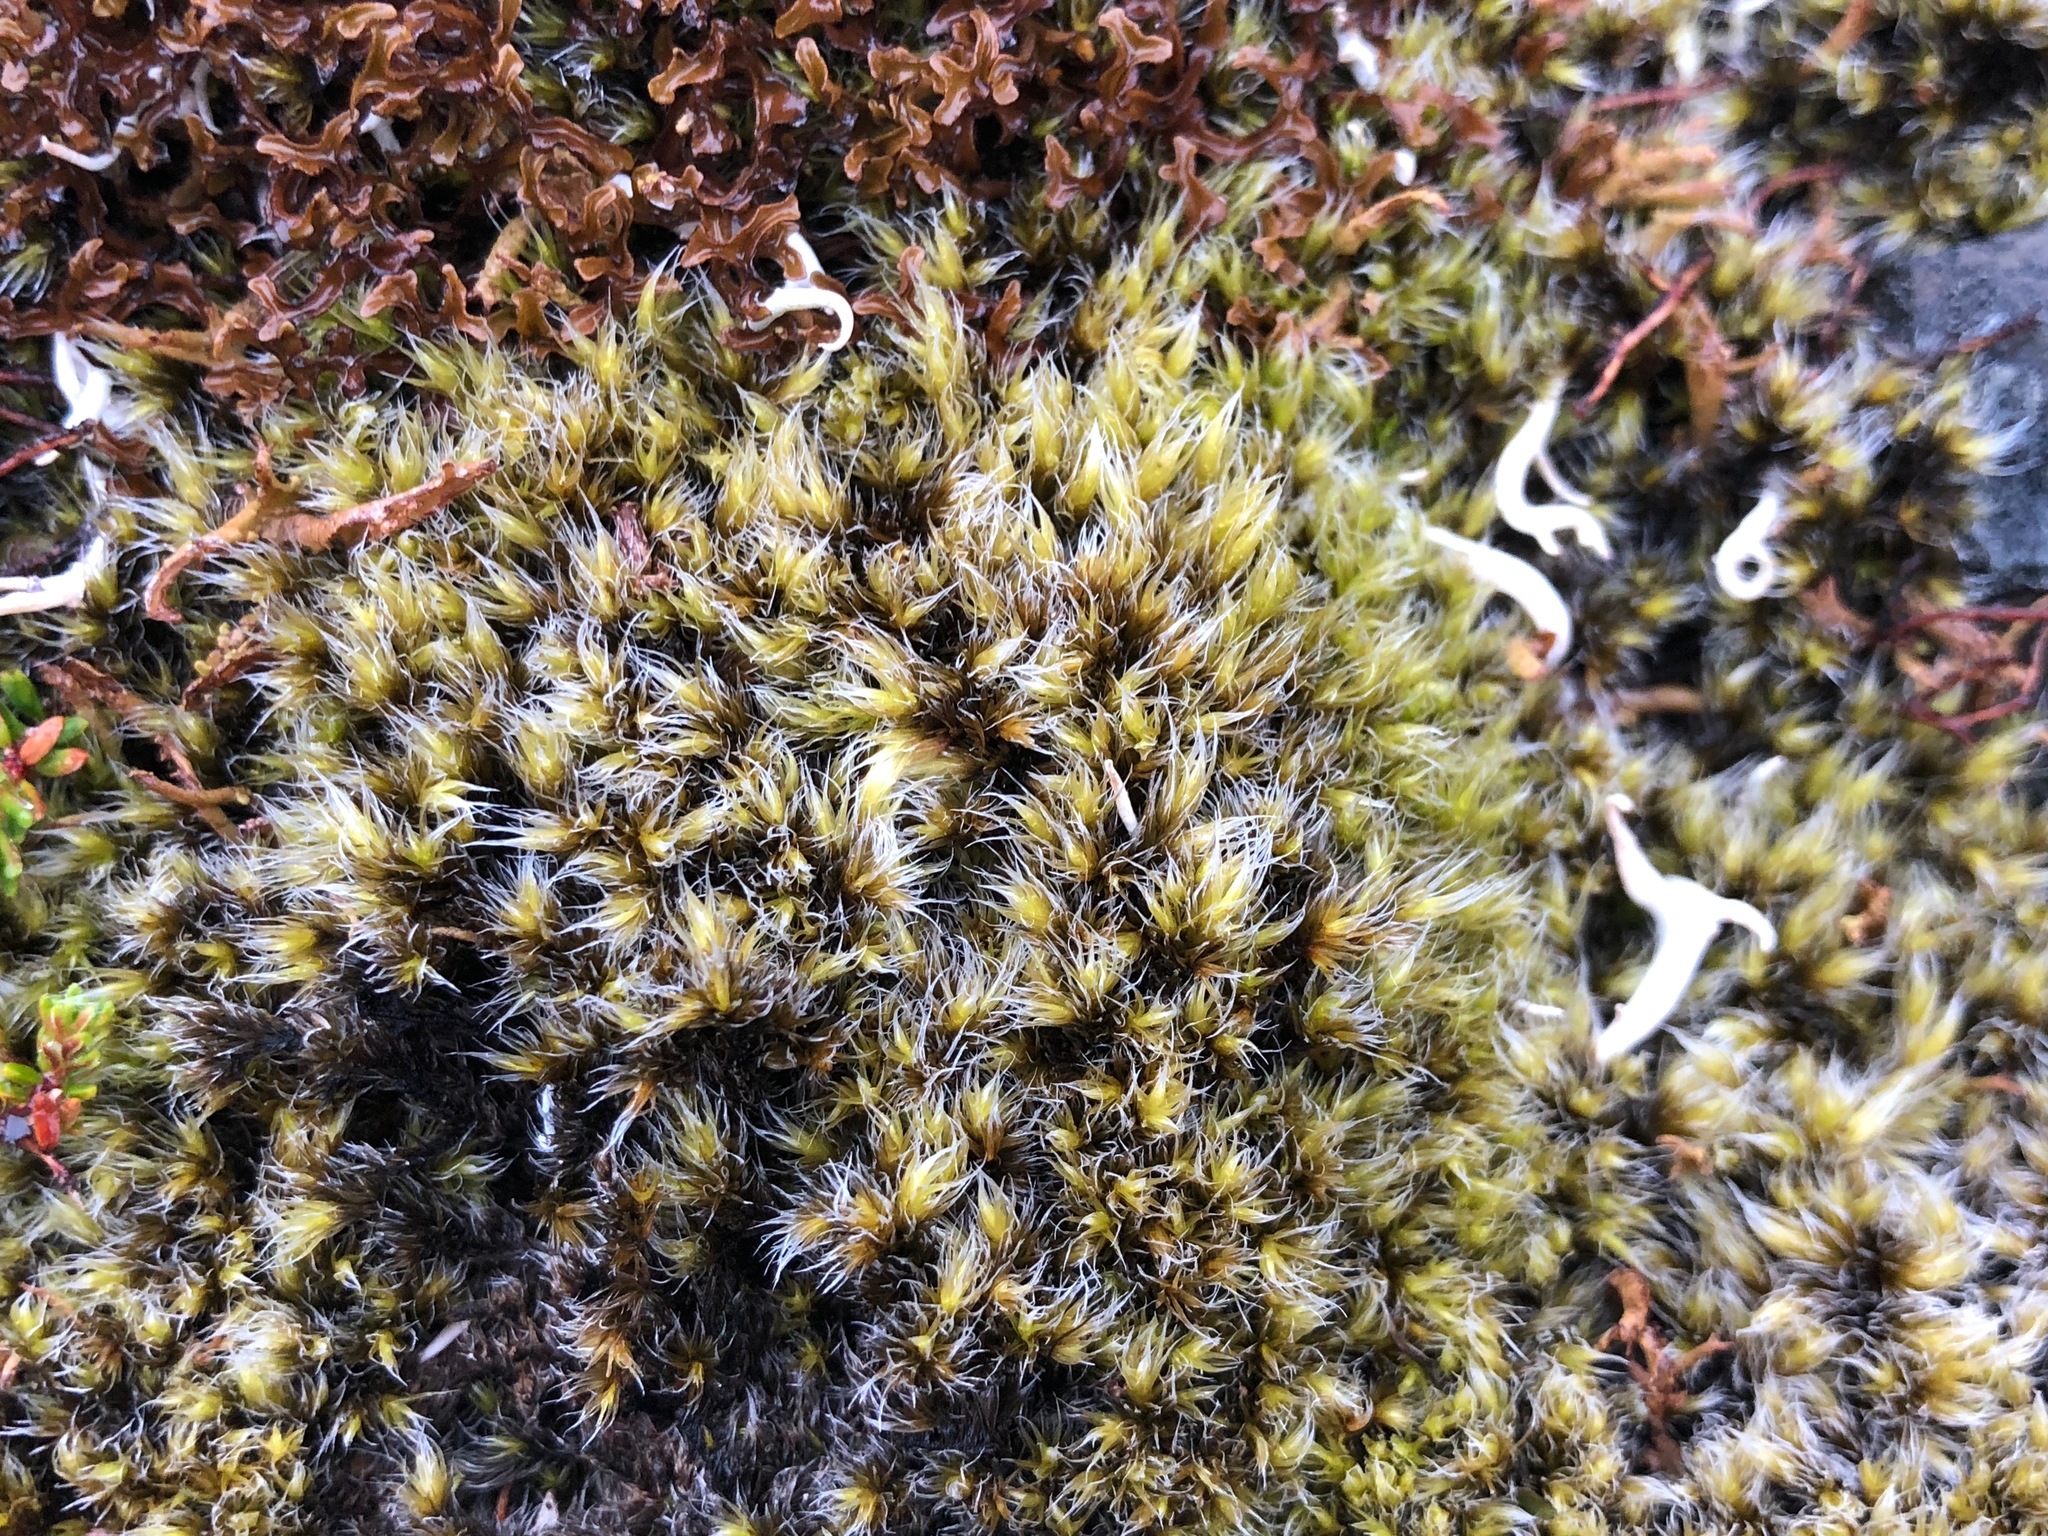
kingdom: Plantae
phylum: Bryophyta
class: Bryopsida
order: Grimmiales
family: Grimmiaceae
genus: Racomitrium
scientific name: Racomitrium lanuginosum
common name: Hoary rock moss
